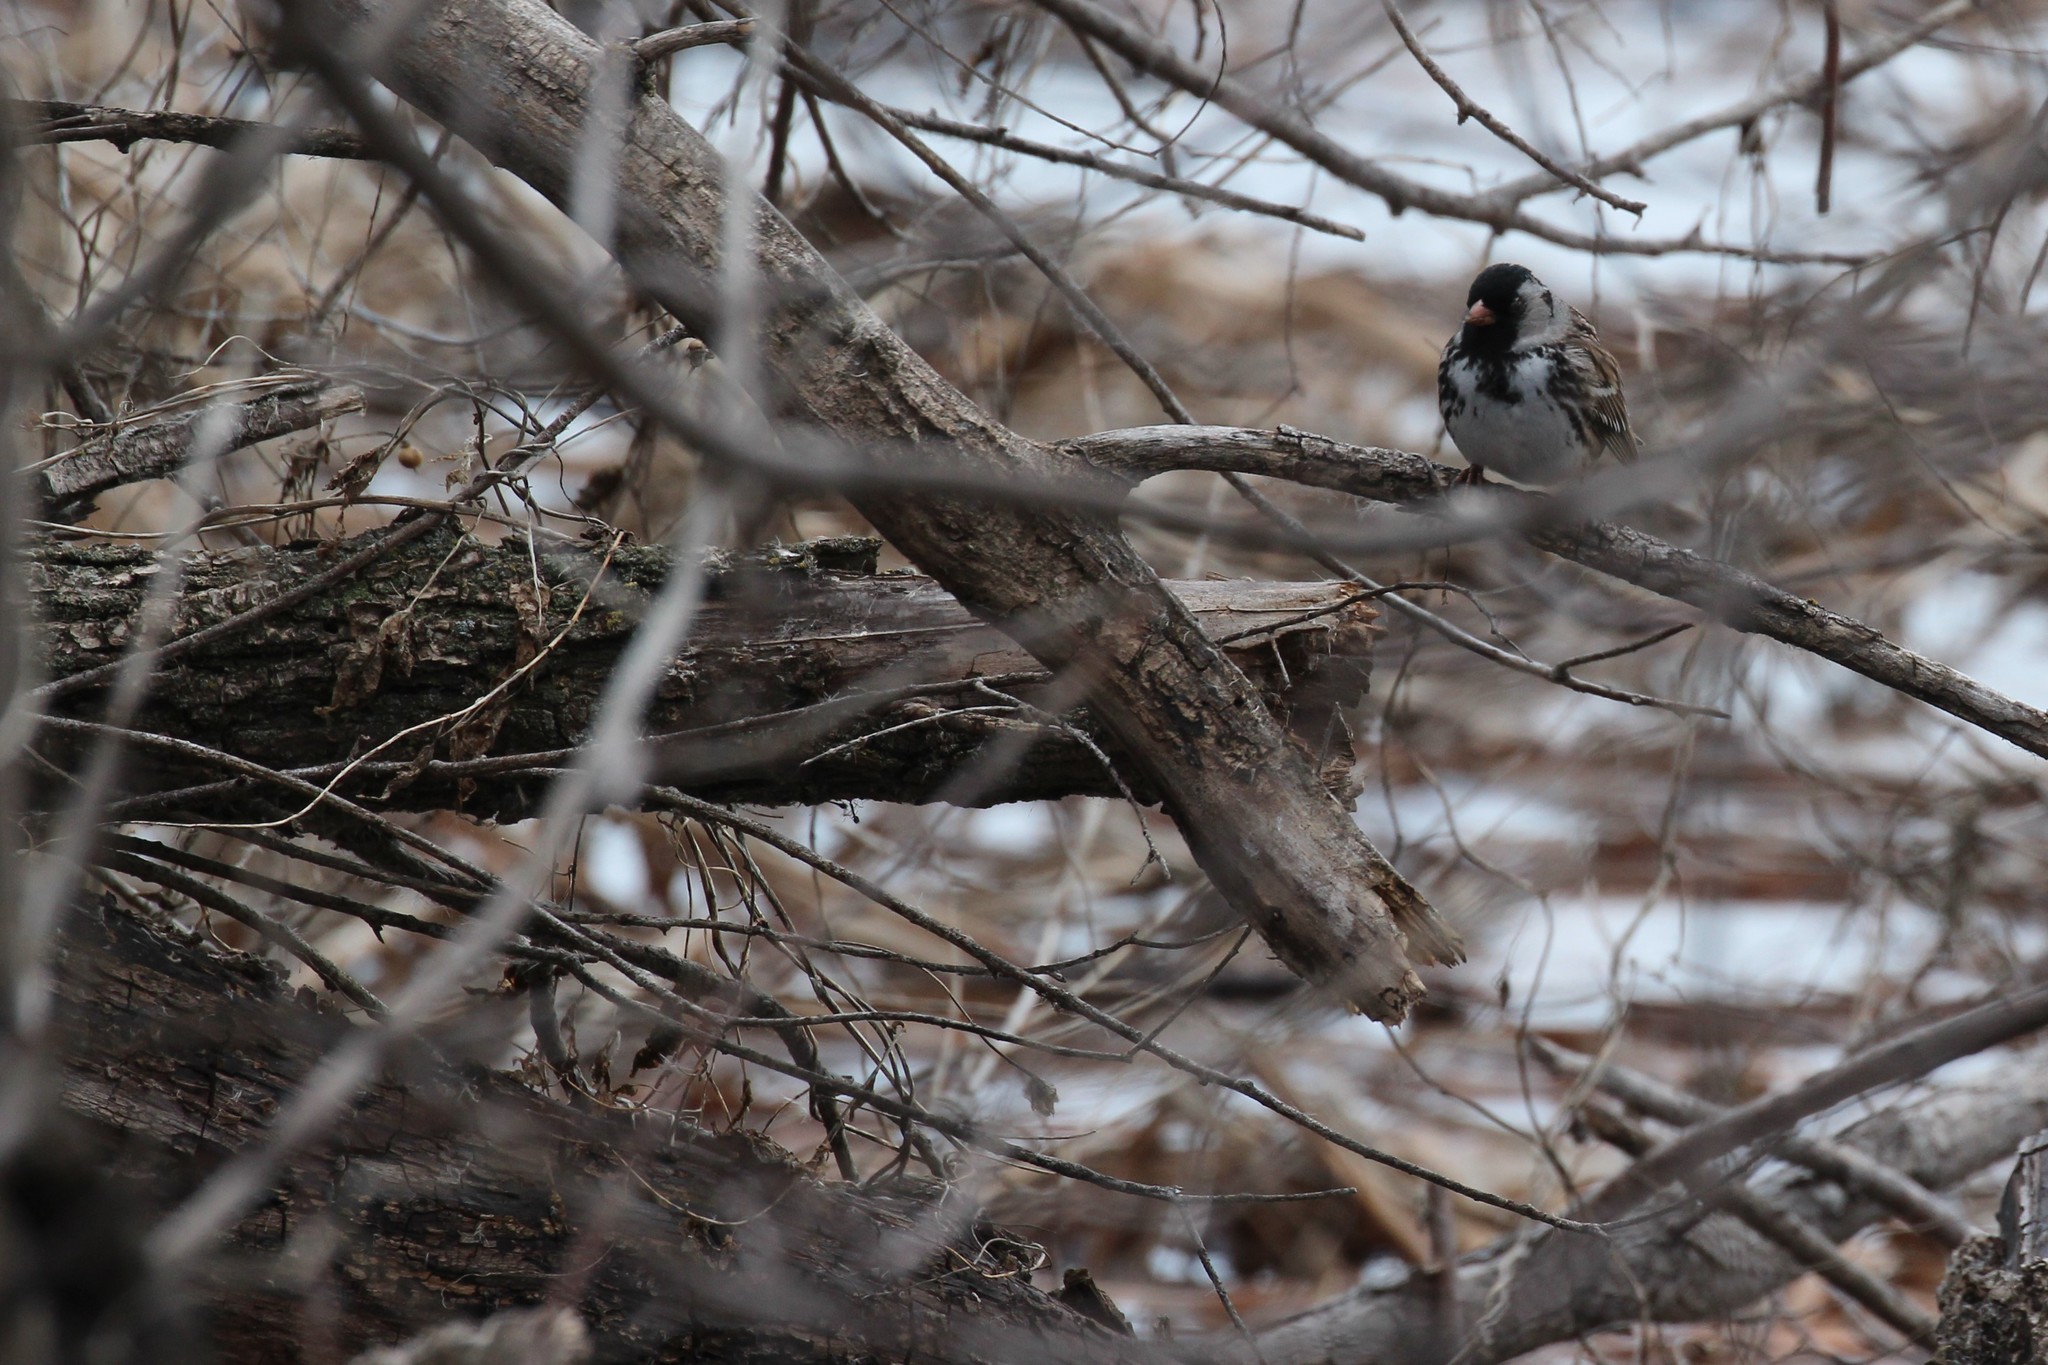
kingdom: Animalia
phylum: Chordata
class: Aves
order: Passeriformes
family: Passerellidae
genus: Zonotrichia
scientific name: Zonotrichia querula
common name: Harris's sparrow
